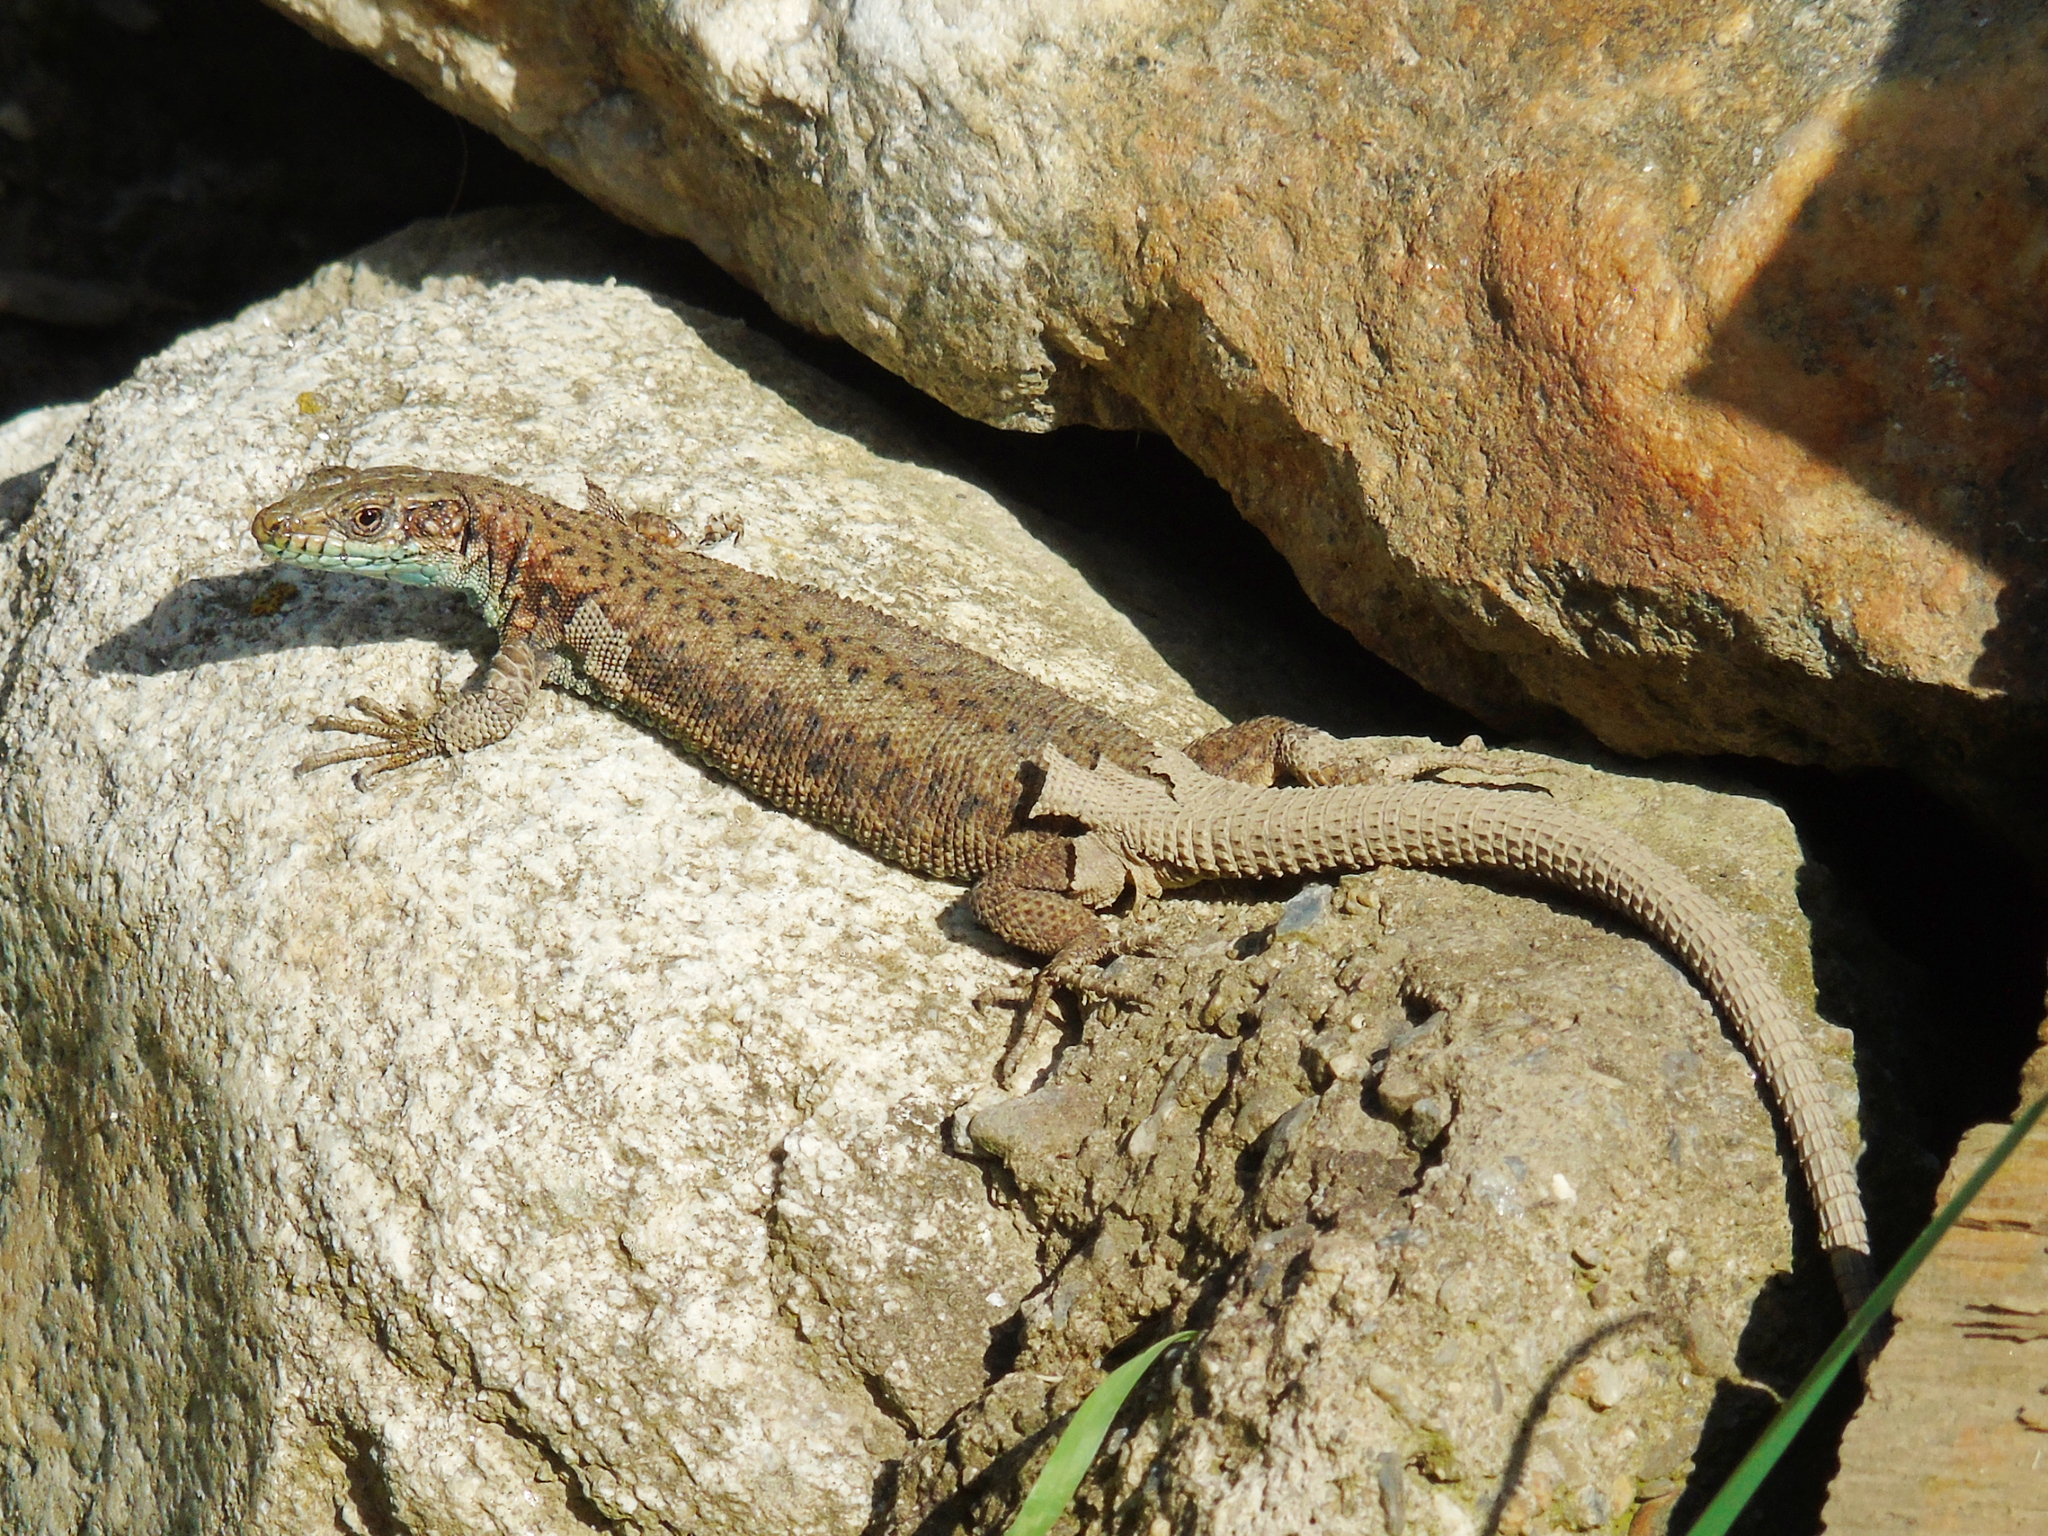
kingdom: Animalia
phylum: Chordata
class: Squamata
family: Lacertidae
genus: Darevskia
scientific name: Darevskia rudis
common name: Spiny-tailed lizard
